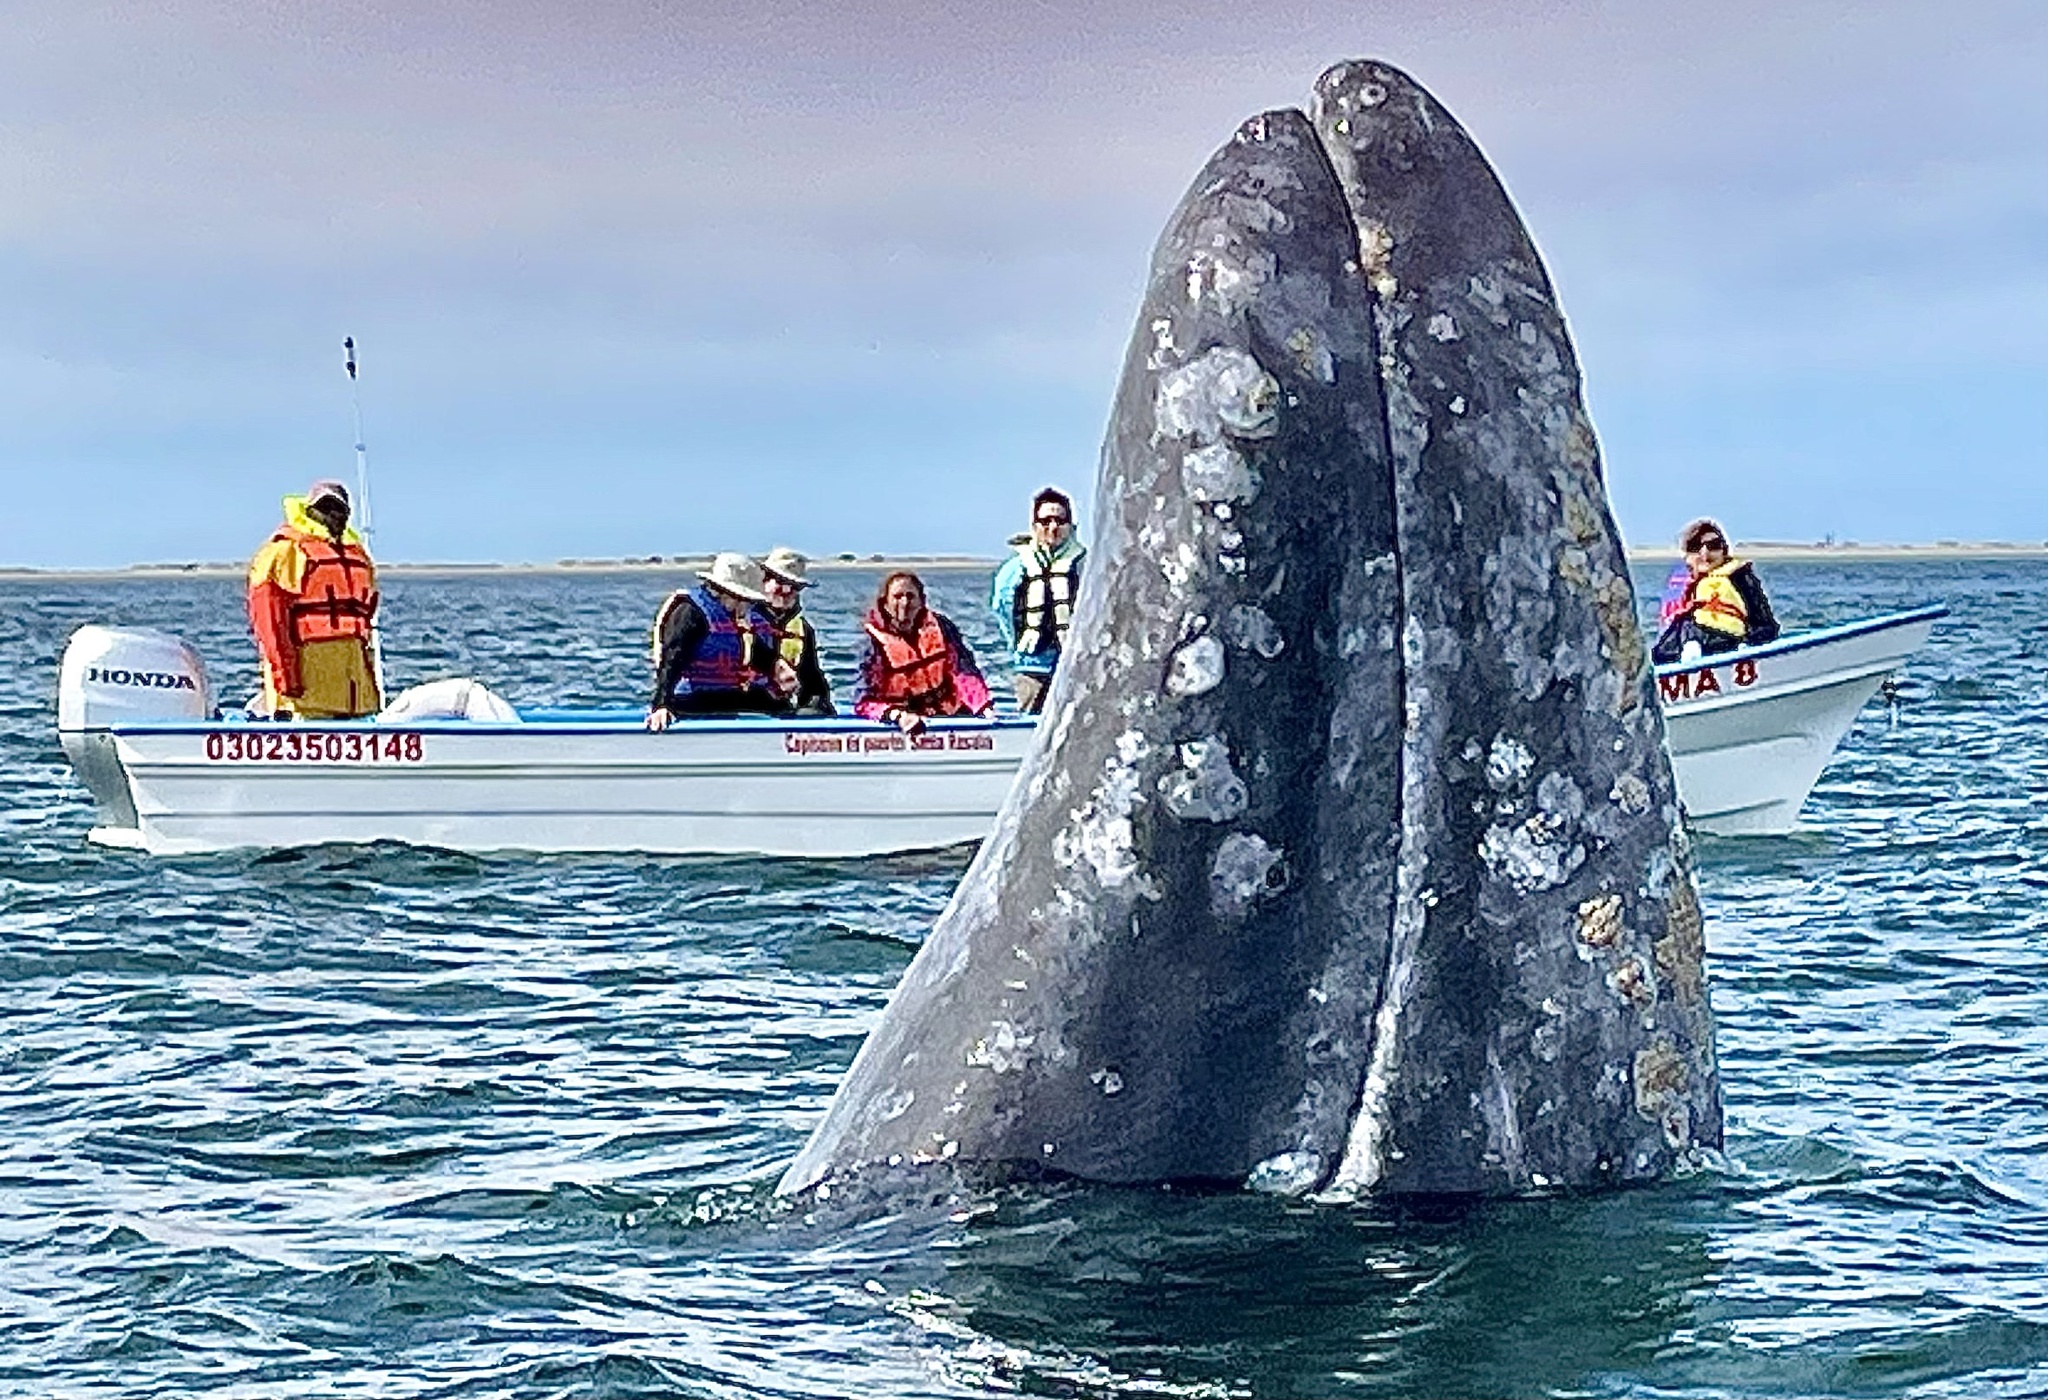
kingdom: Animalia
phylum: Chordata
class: Mammalia
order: Cetacea
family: Eschrichtiidae
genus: Eschrichtius
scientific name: Eschrichtius robustus
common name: Gray whale
